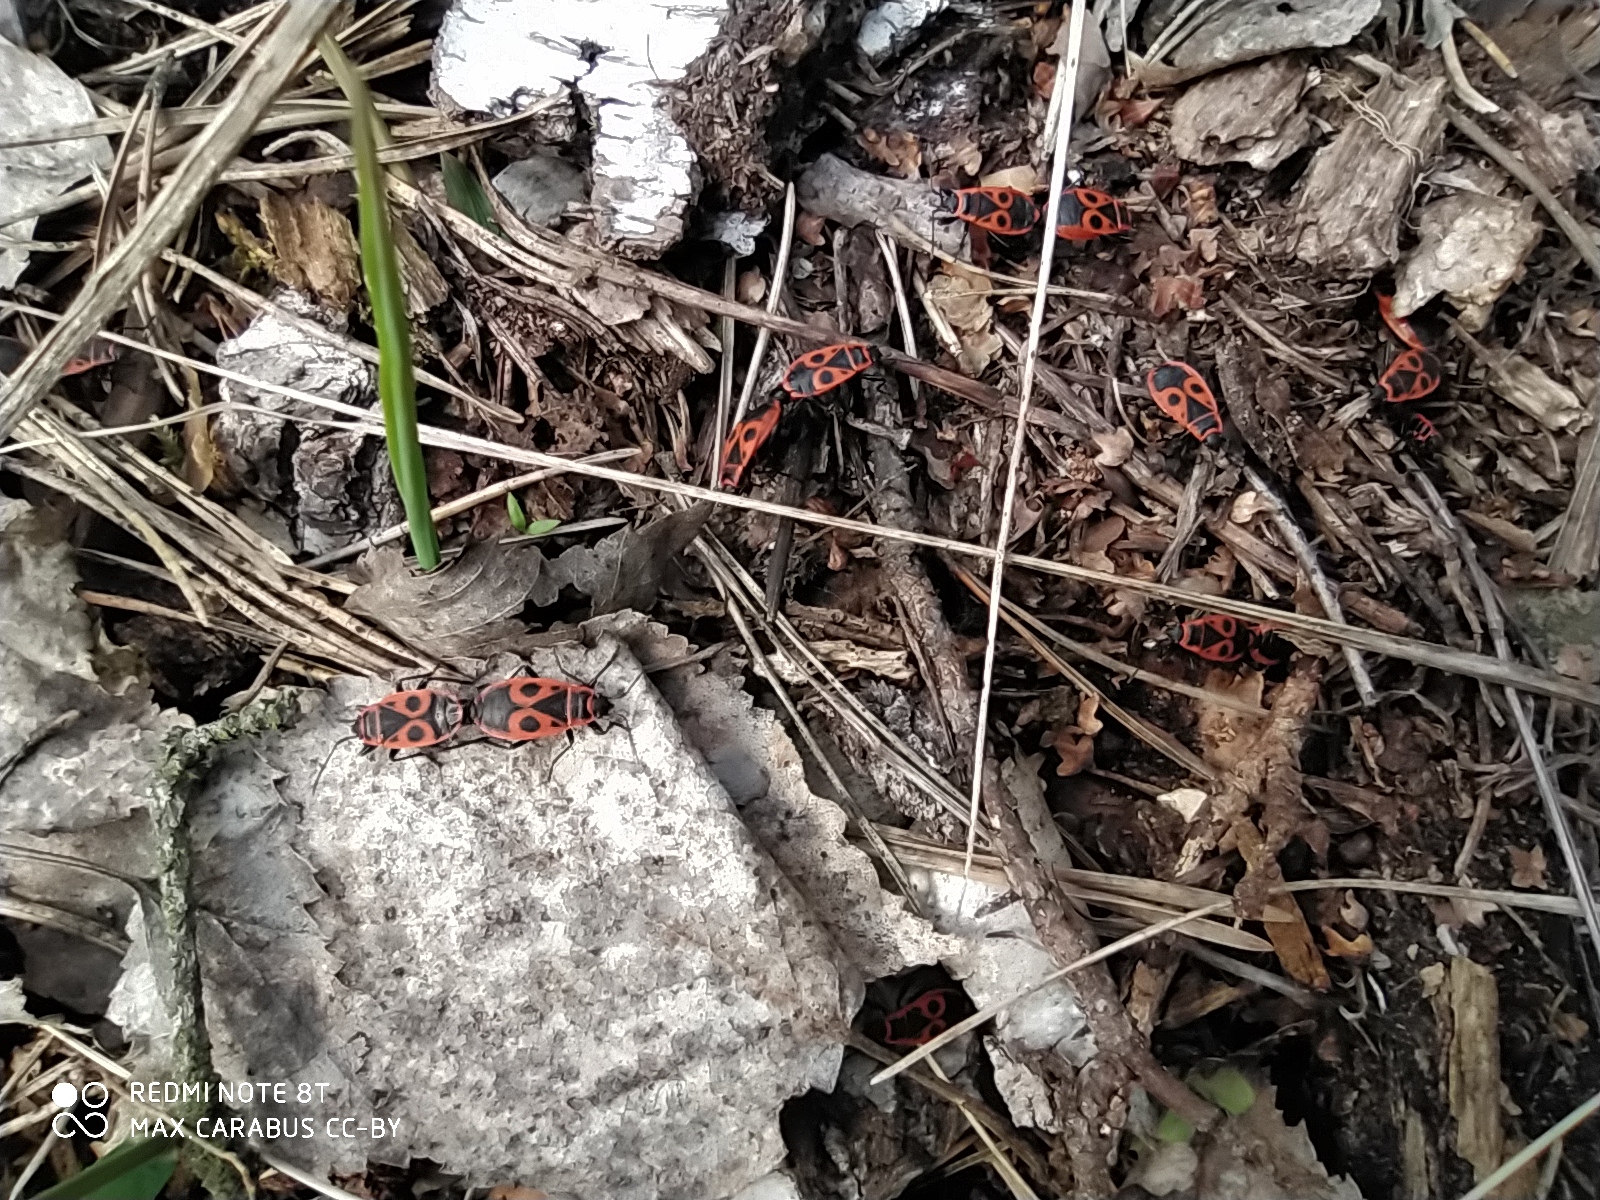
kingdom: Animalia
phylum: Arthropoda
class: Insecta
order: Hemiptera
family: Pyrrhocoridae
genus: Pyrrhocoris
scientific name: Pyrrhocoris apterus
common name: Firebug
